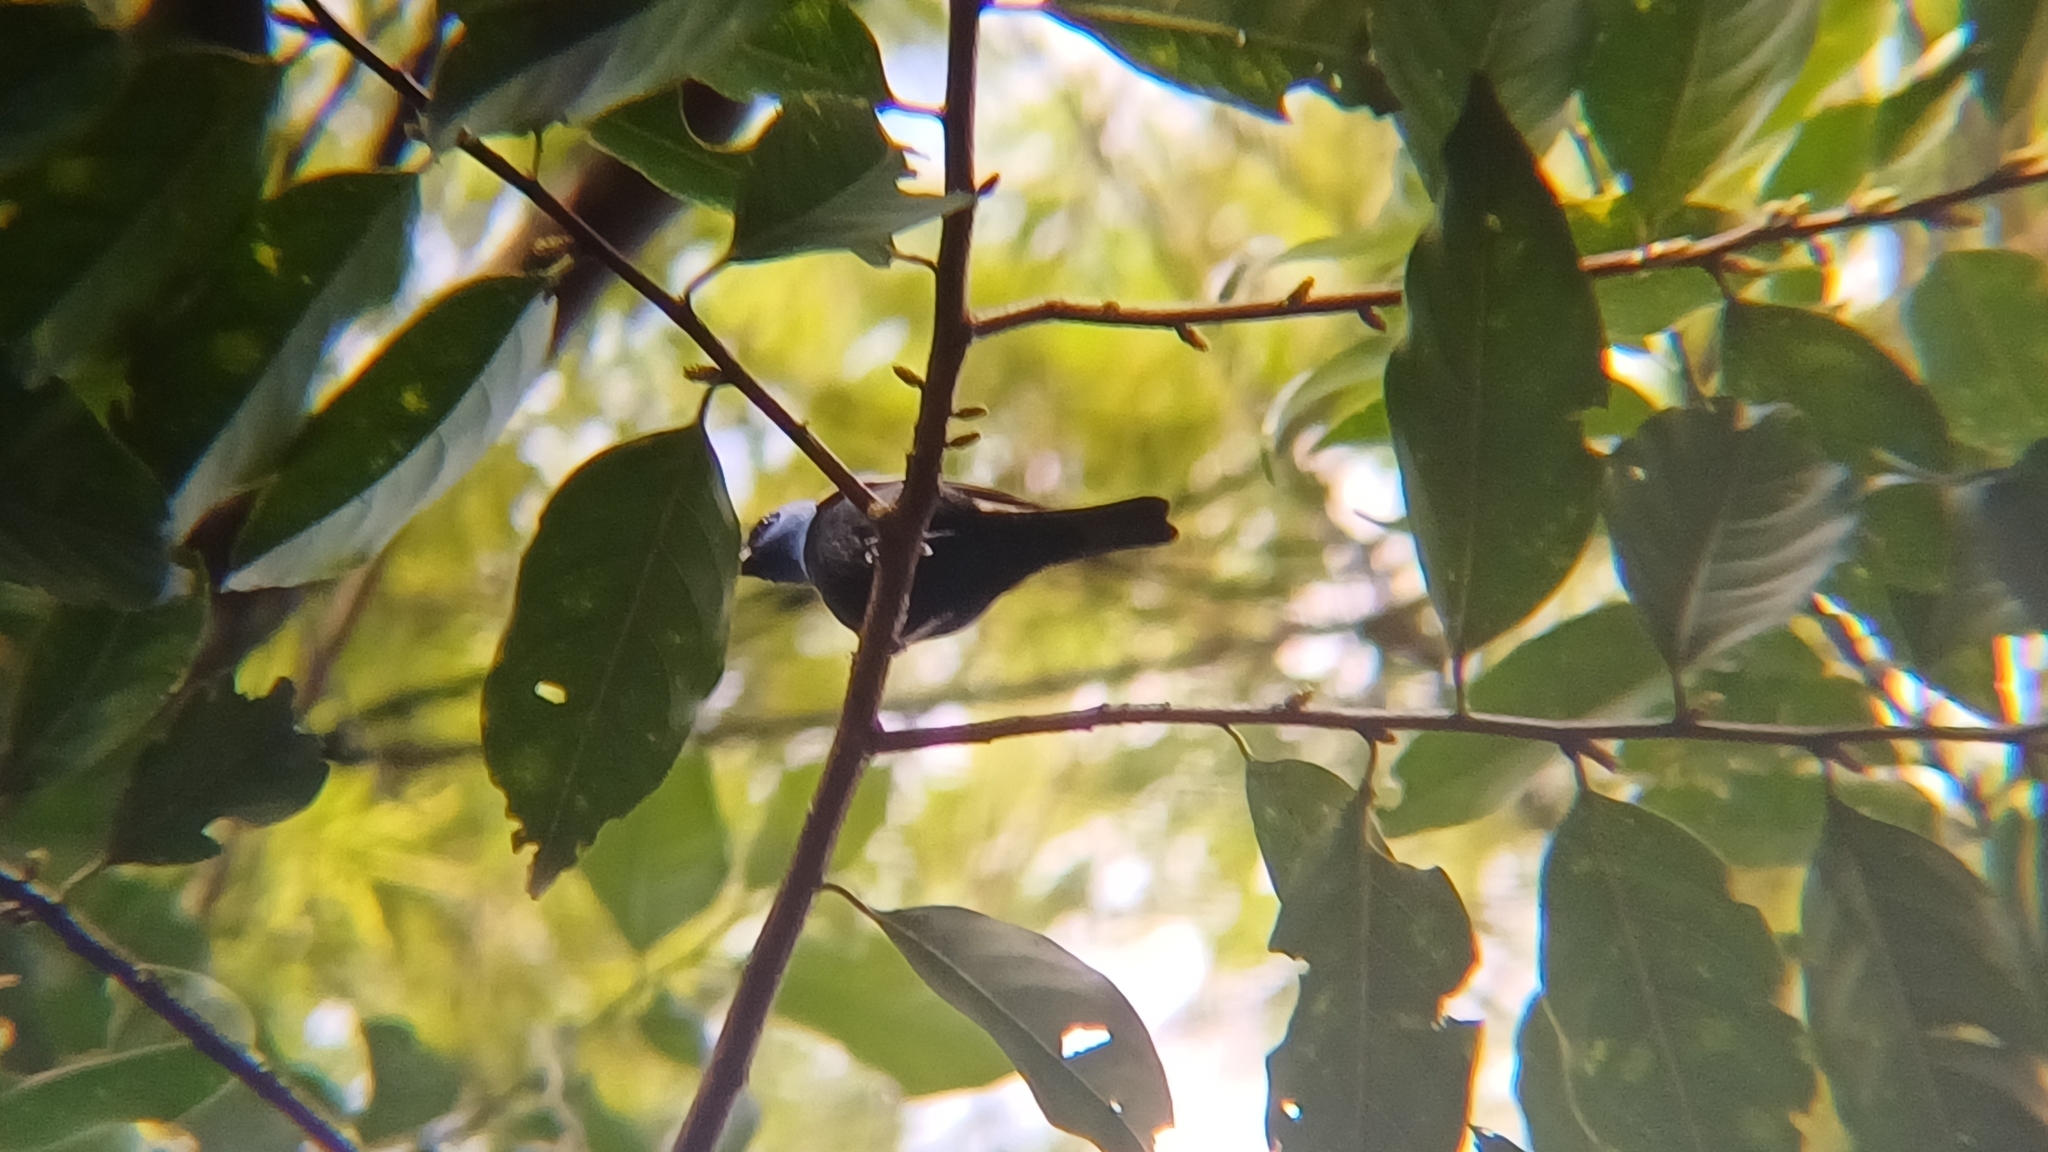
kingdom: Animalia
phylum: Chordata
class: Aves
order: Passeriformes
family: Thraupidae
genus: Stilpnia
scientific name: Stilpnia cyanicollis
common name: Blue-necked tanager
